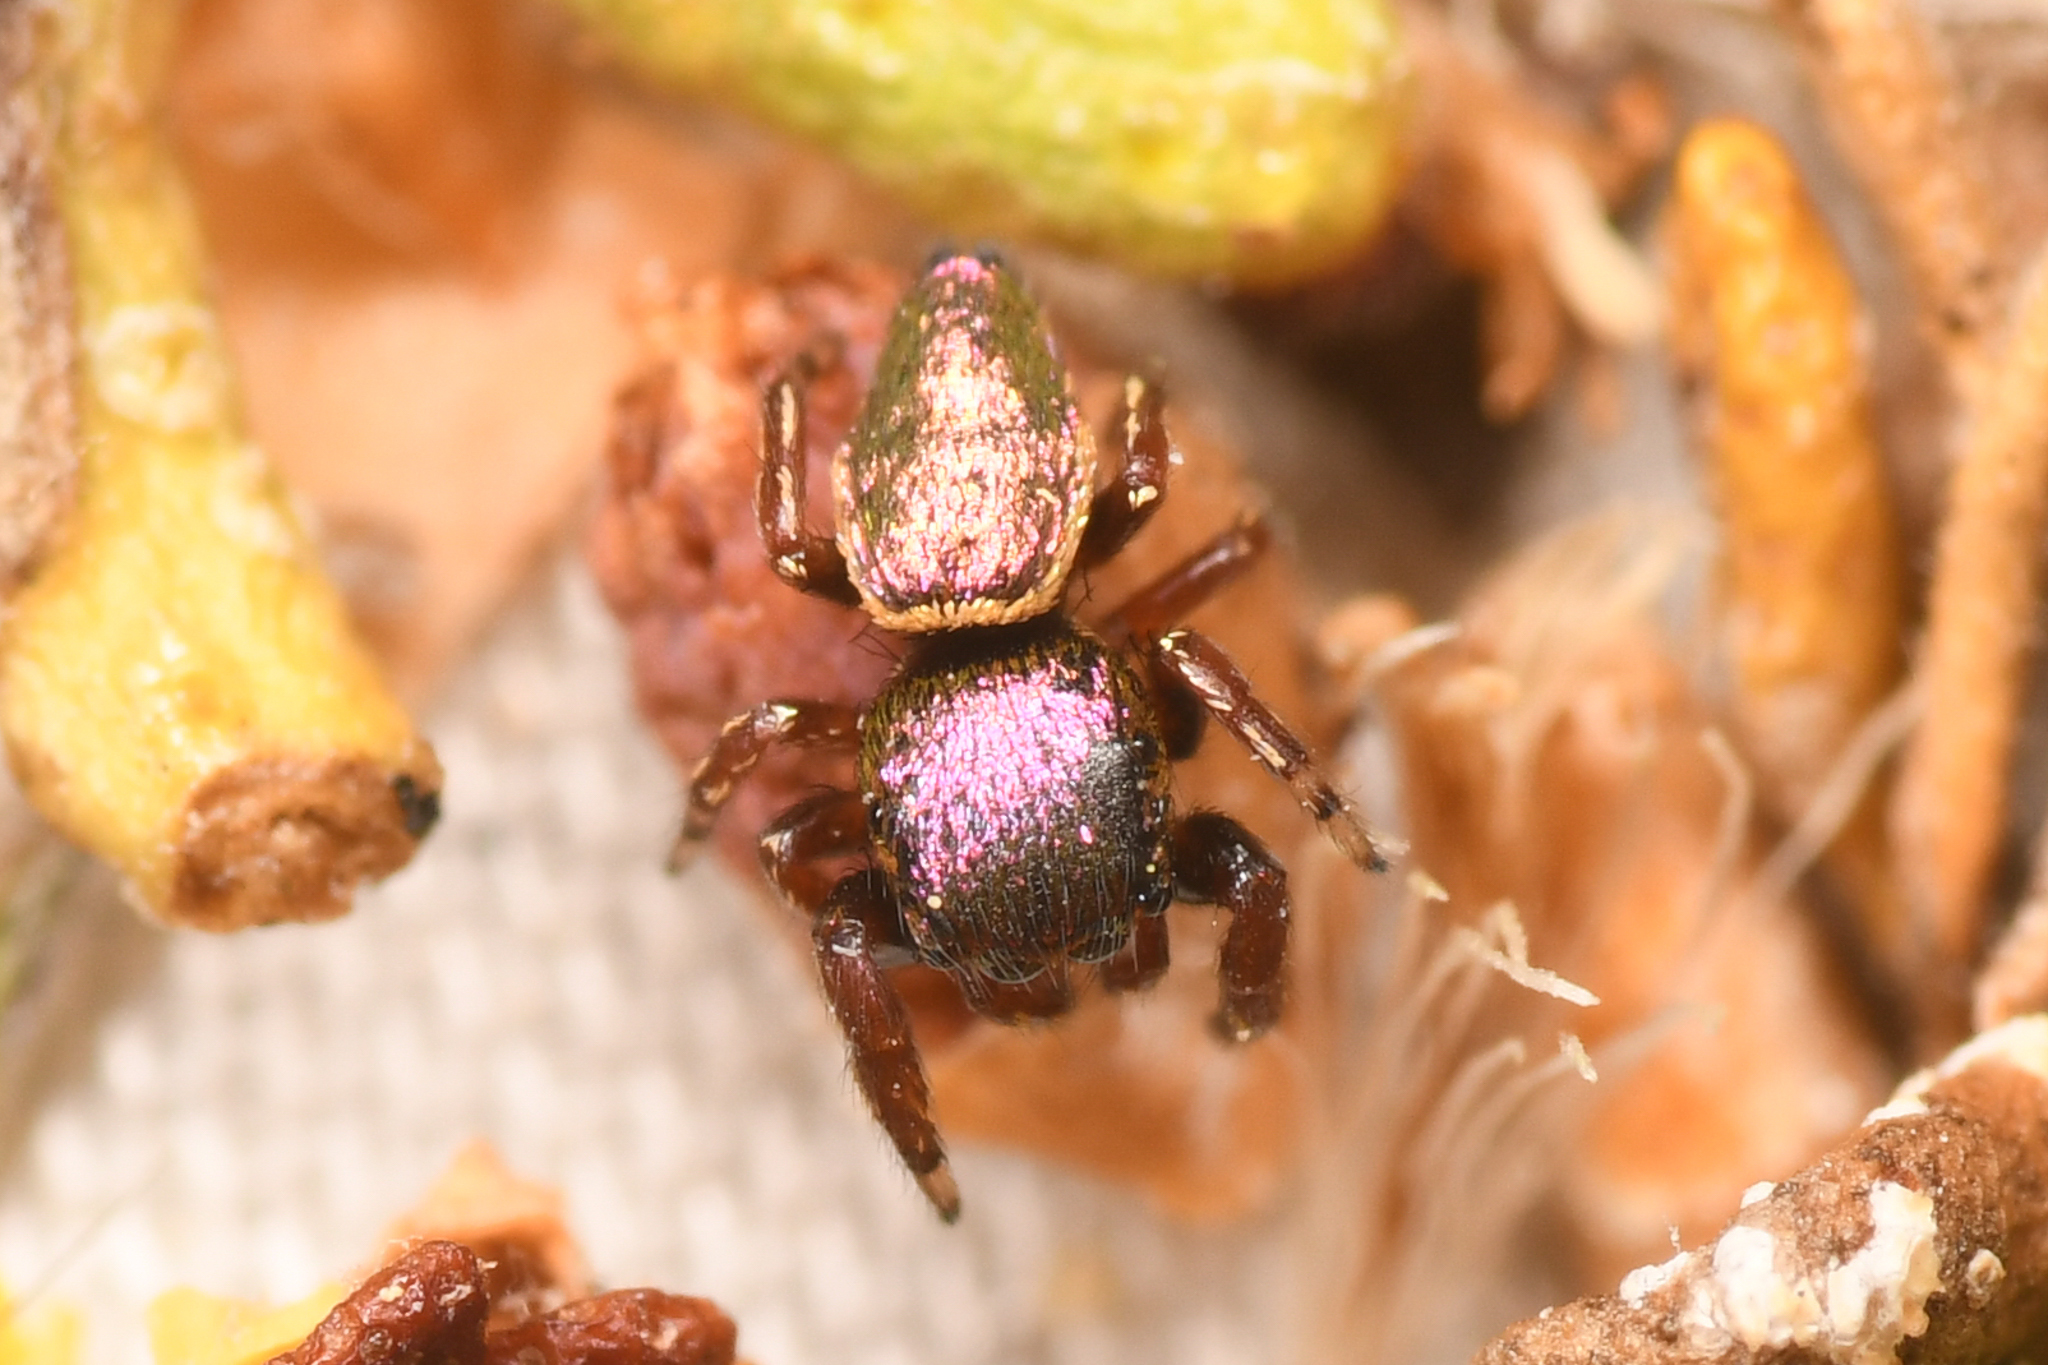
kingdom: Animalia
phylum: Arthropoda
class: Arachnida
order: Araneae
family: Salticidae
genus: Sassacus
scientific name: Sassacus papenhoei
